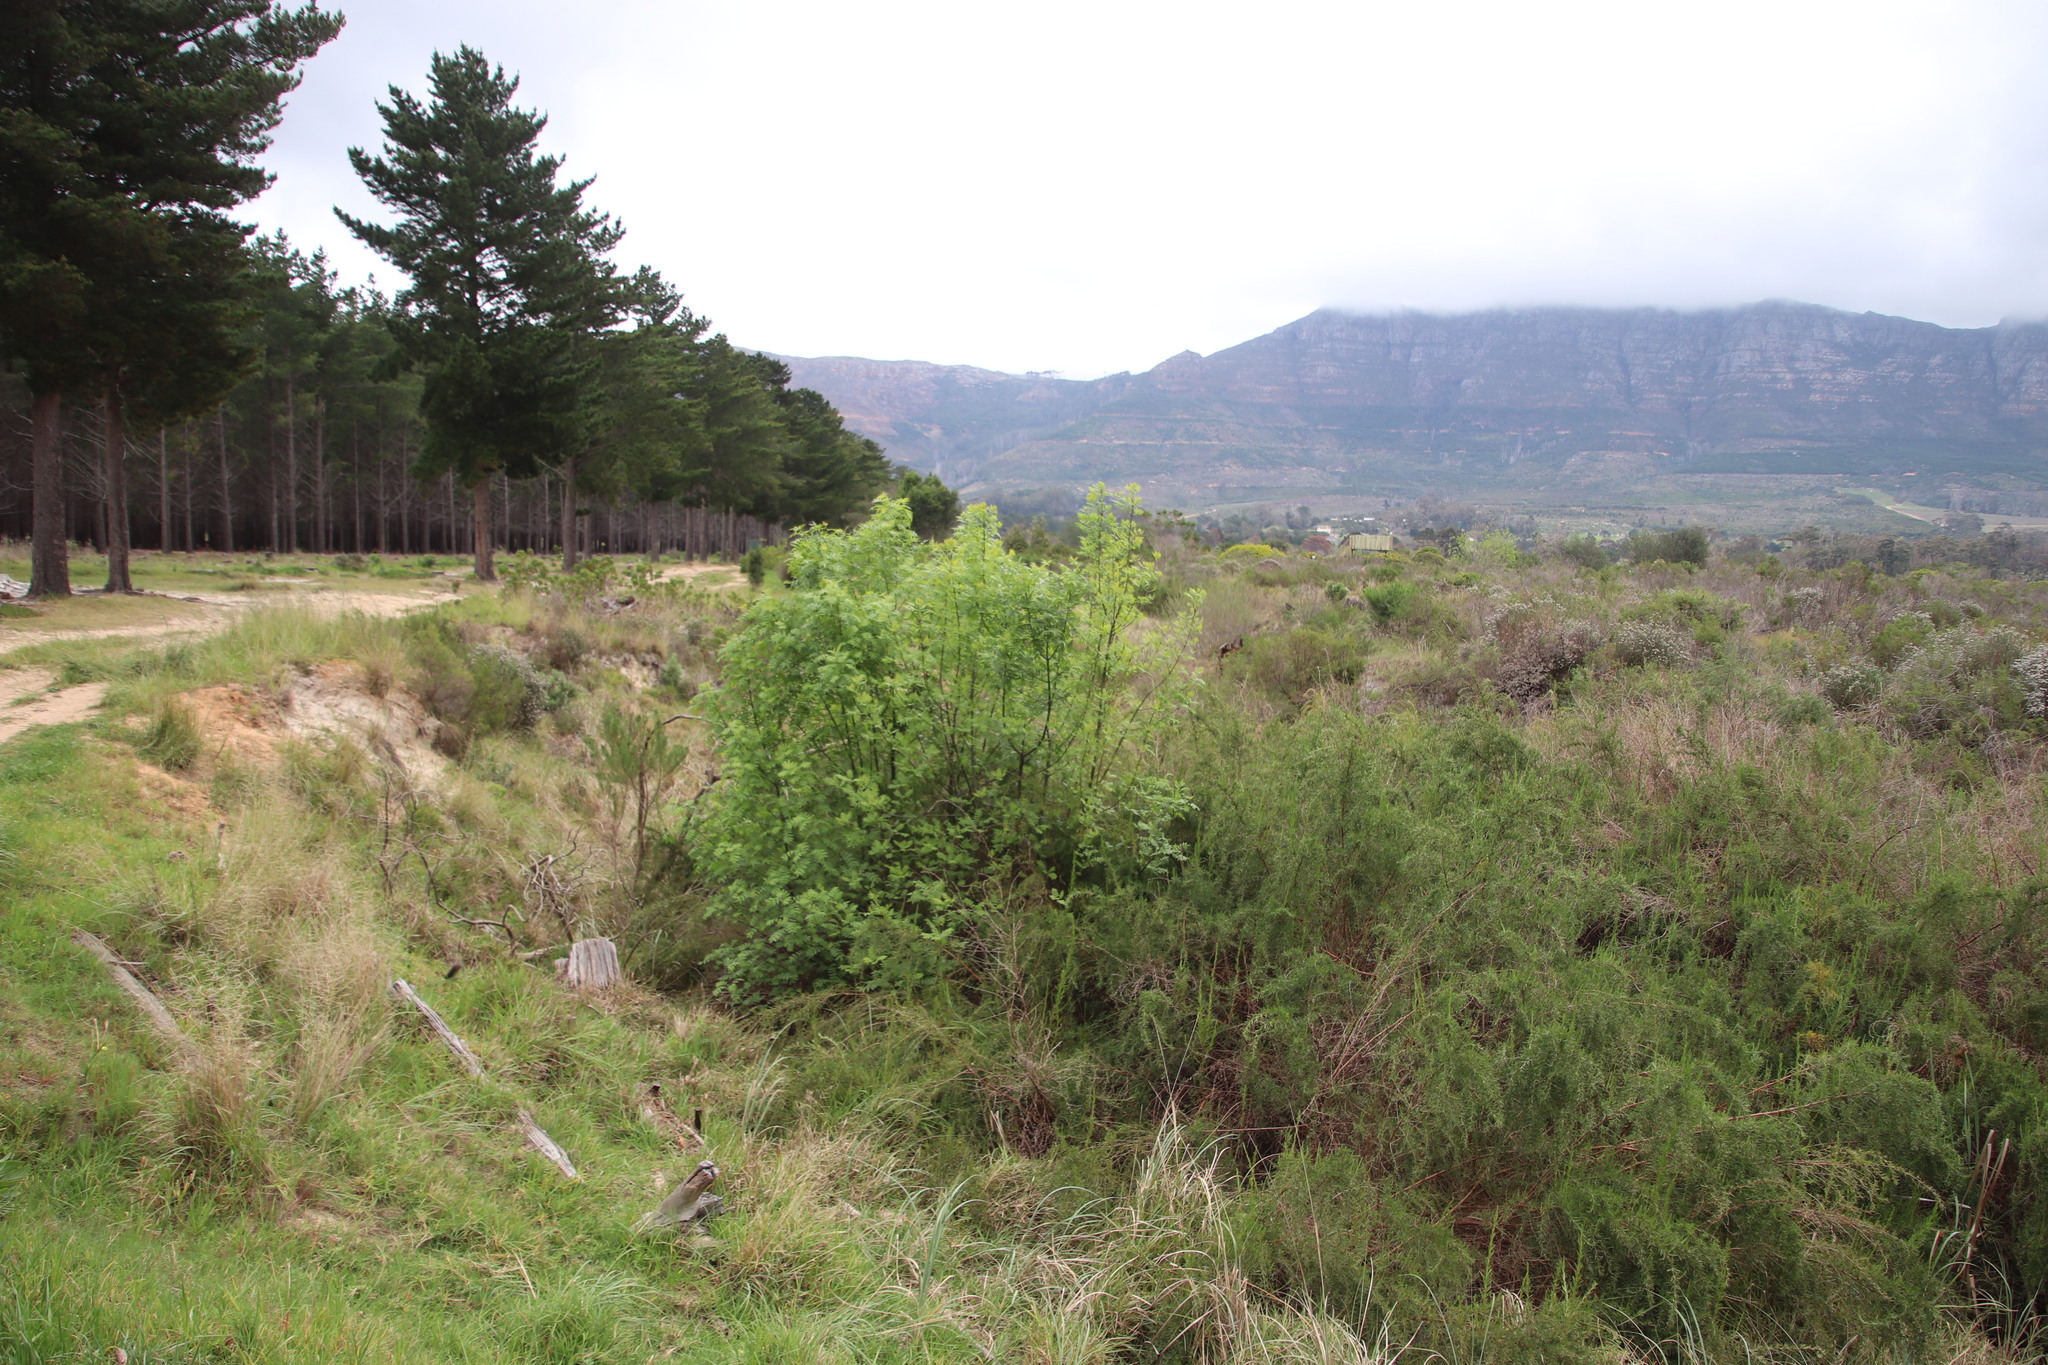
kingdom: Plantae
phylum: Tracheophyta
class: Magnoliopsida
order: Lamiales
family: Oleaceae
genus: Fraxinus
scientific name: Fraxinus pennsylvanica
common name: Green ash
